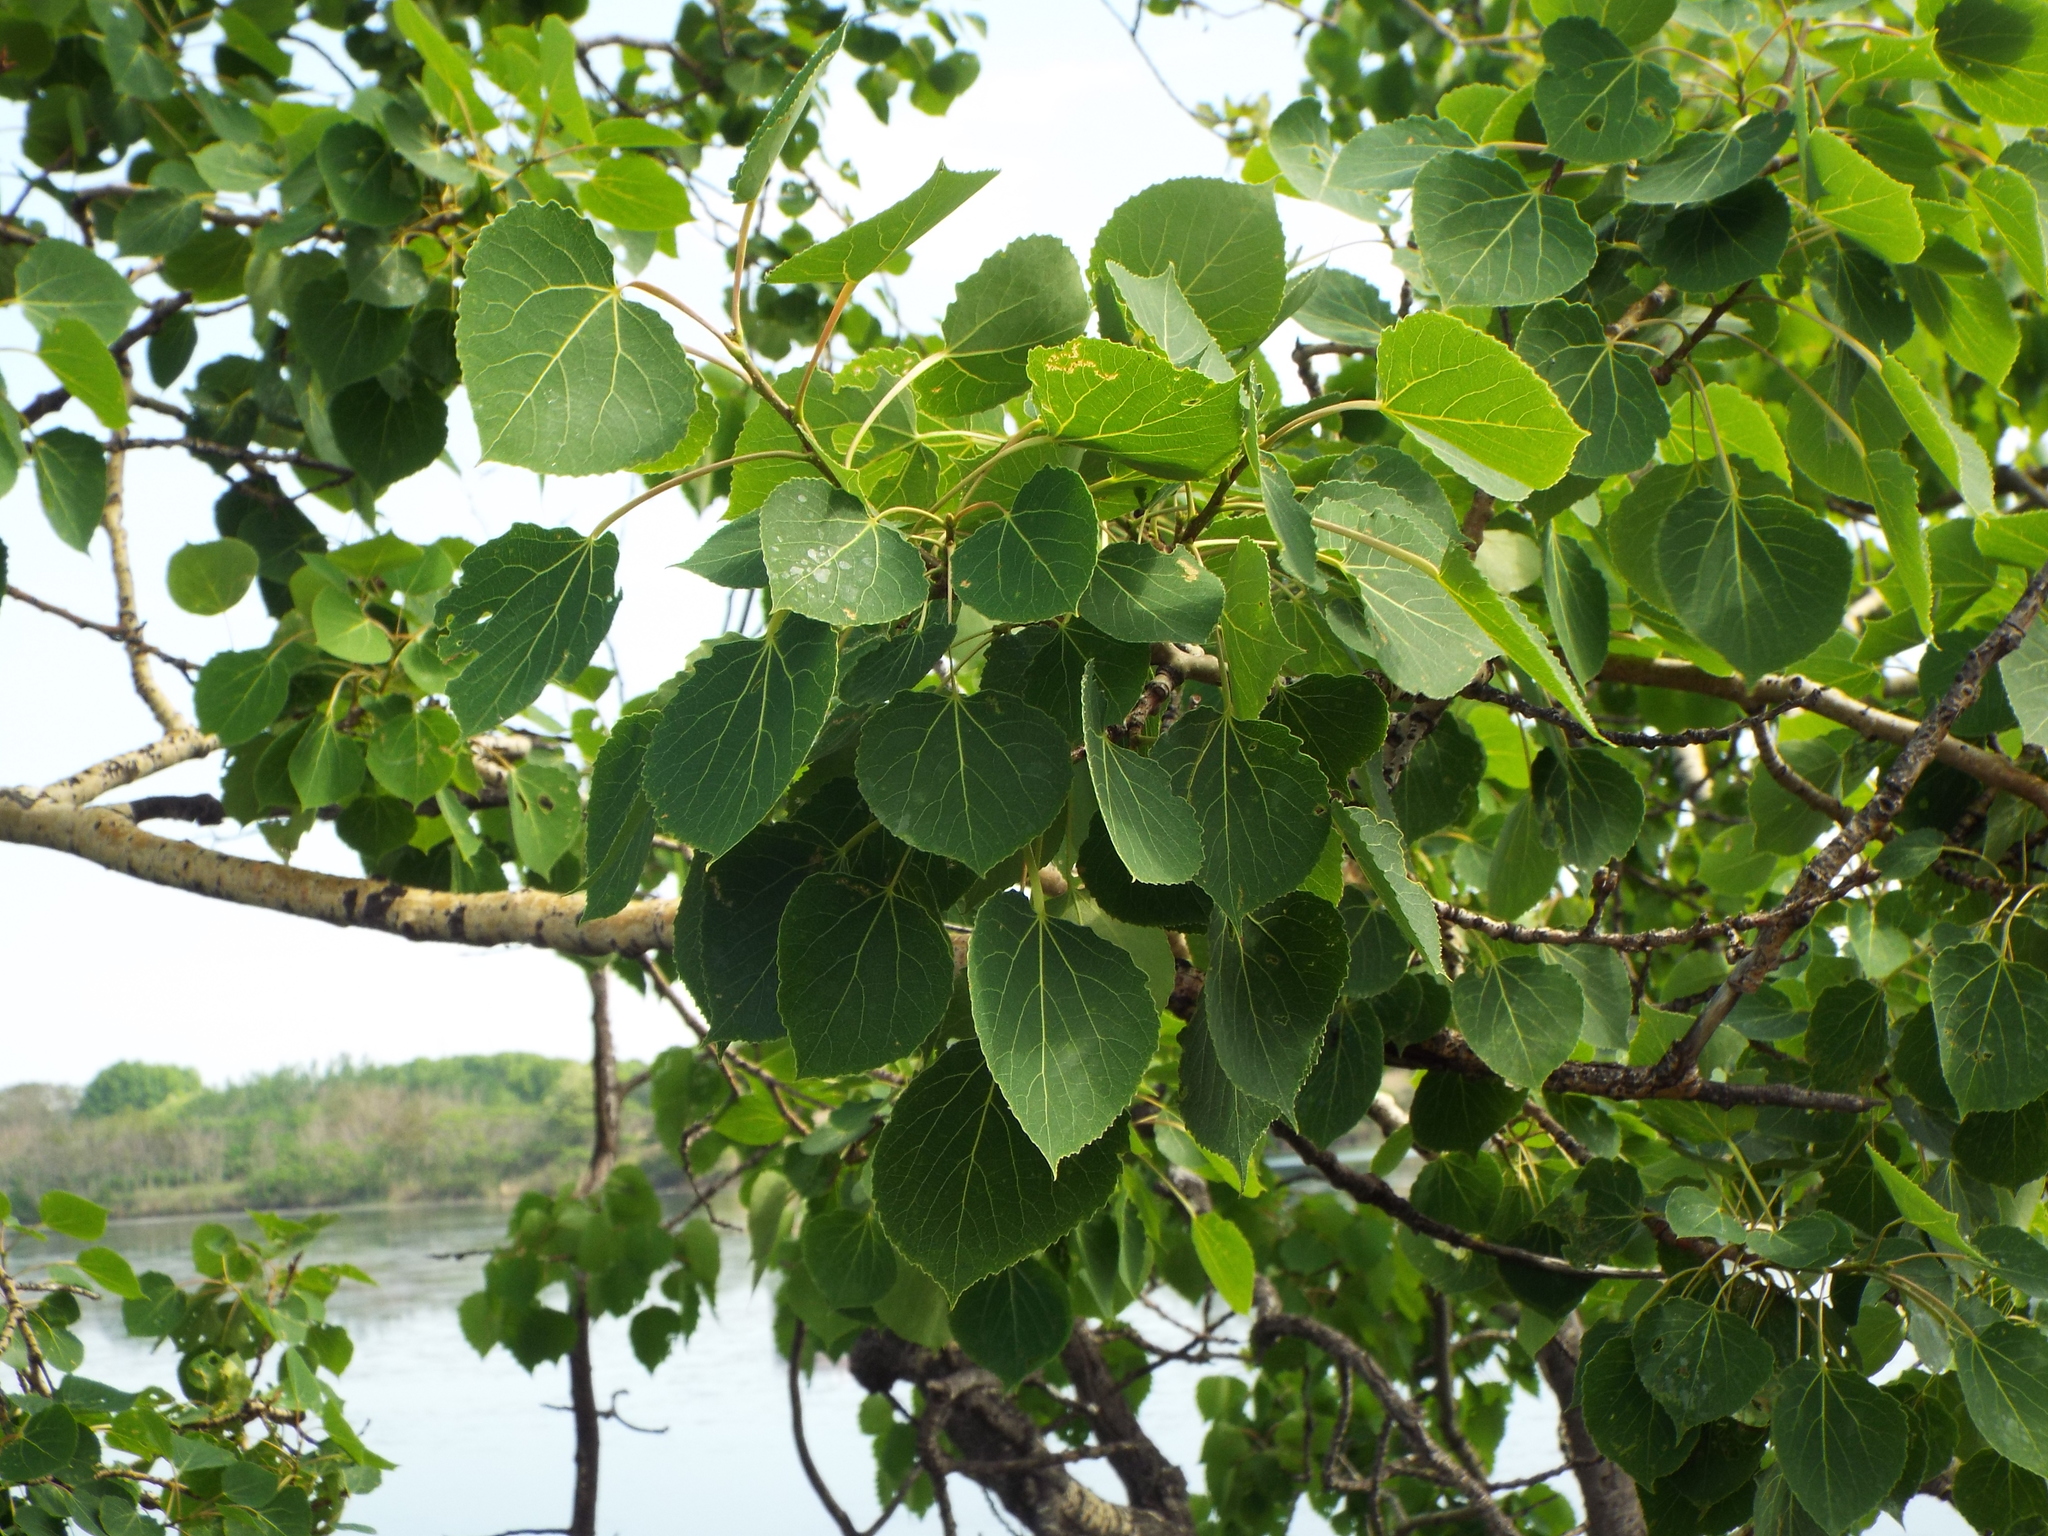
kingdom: Plantae
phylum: Tracheophyta
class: Magnoliopsida
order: Malpighiales
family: Salicaceae
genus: Populus
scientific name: Populus tremuloides
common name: Quaking aspen
